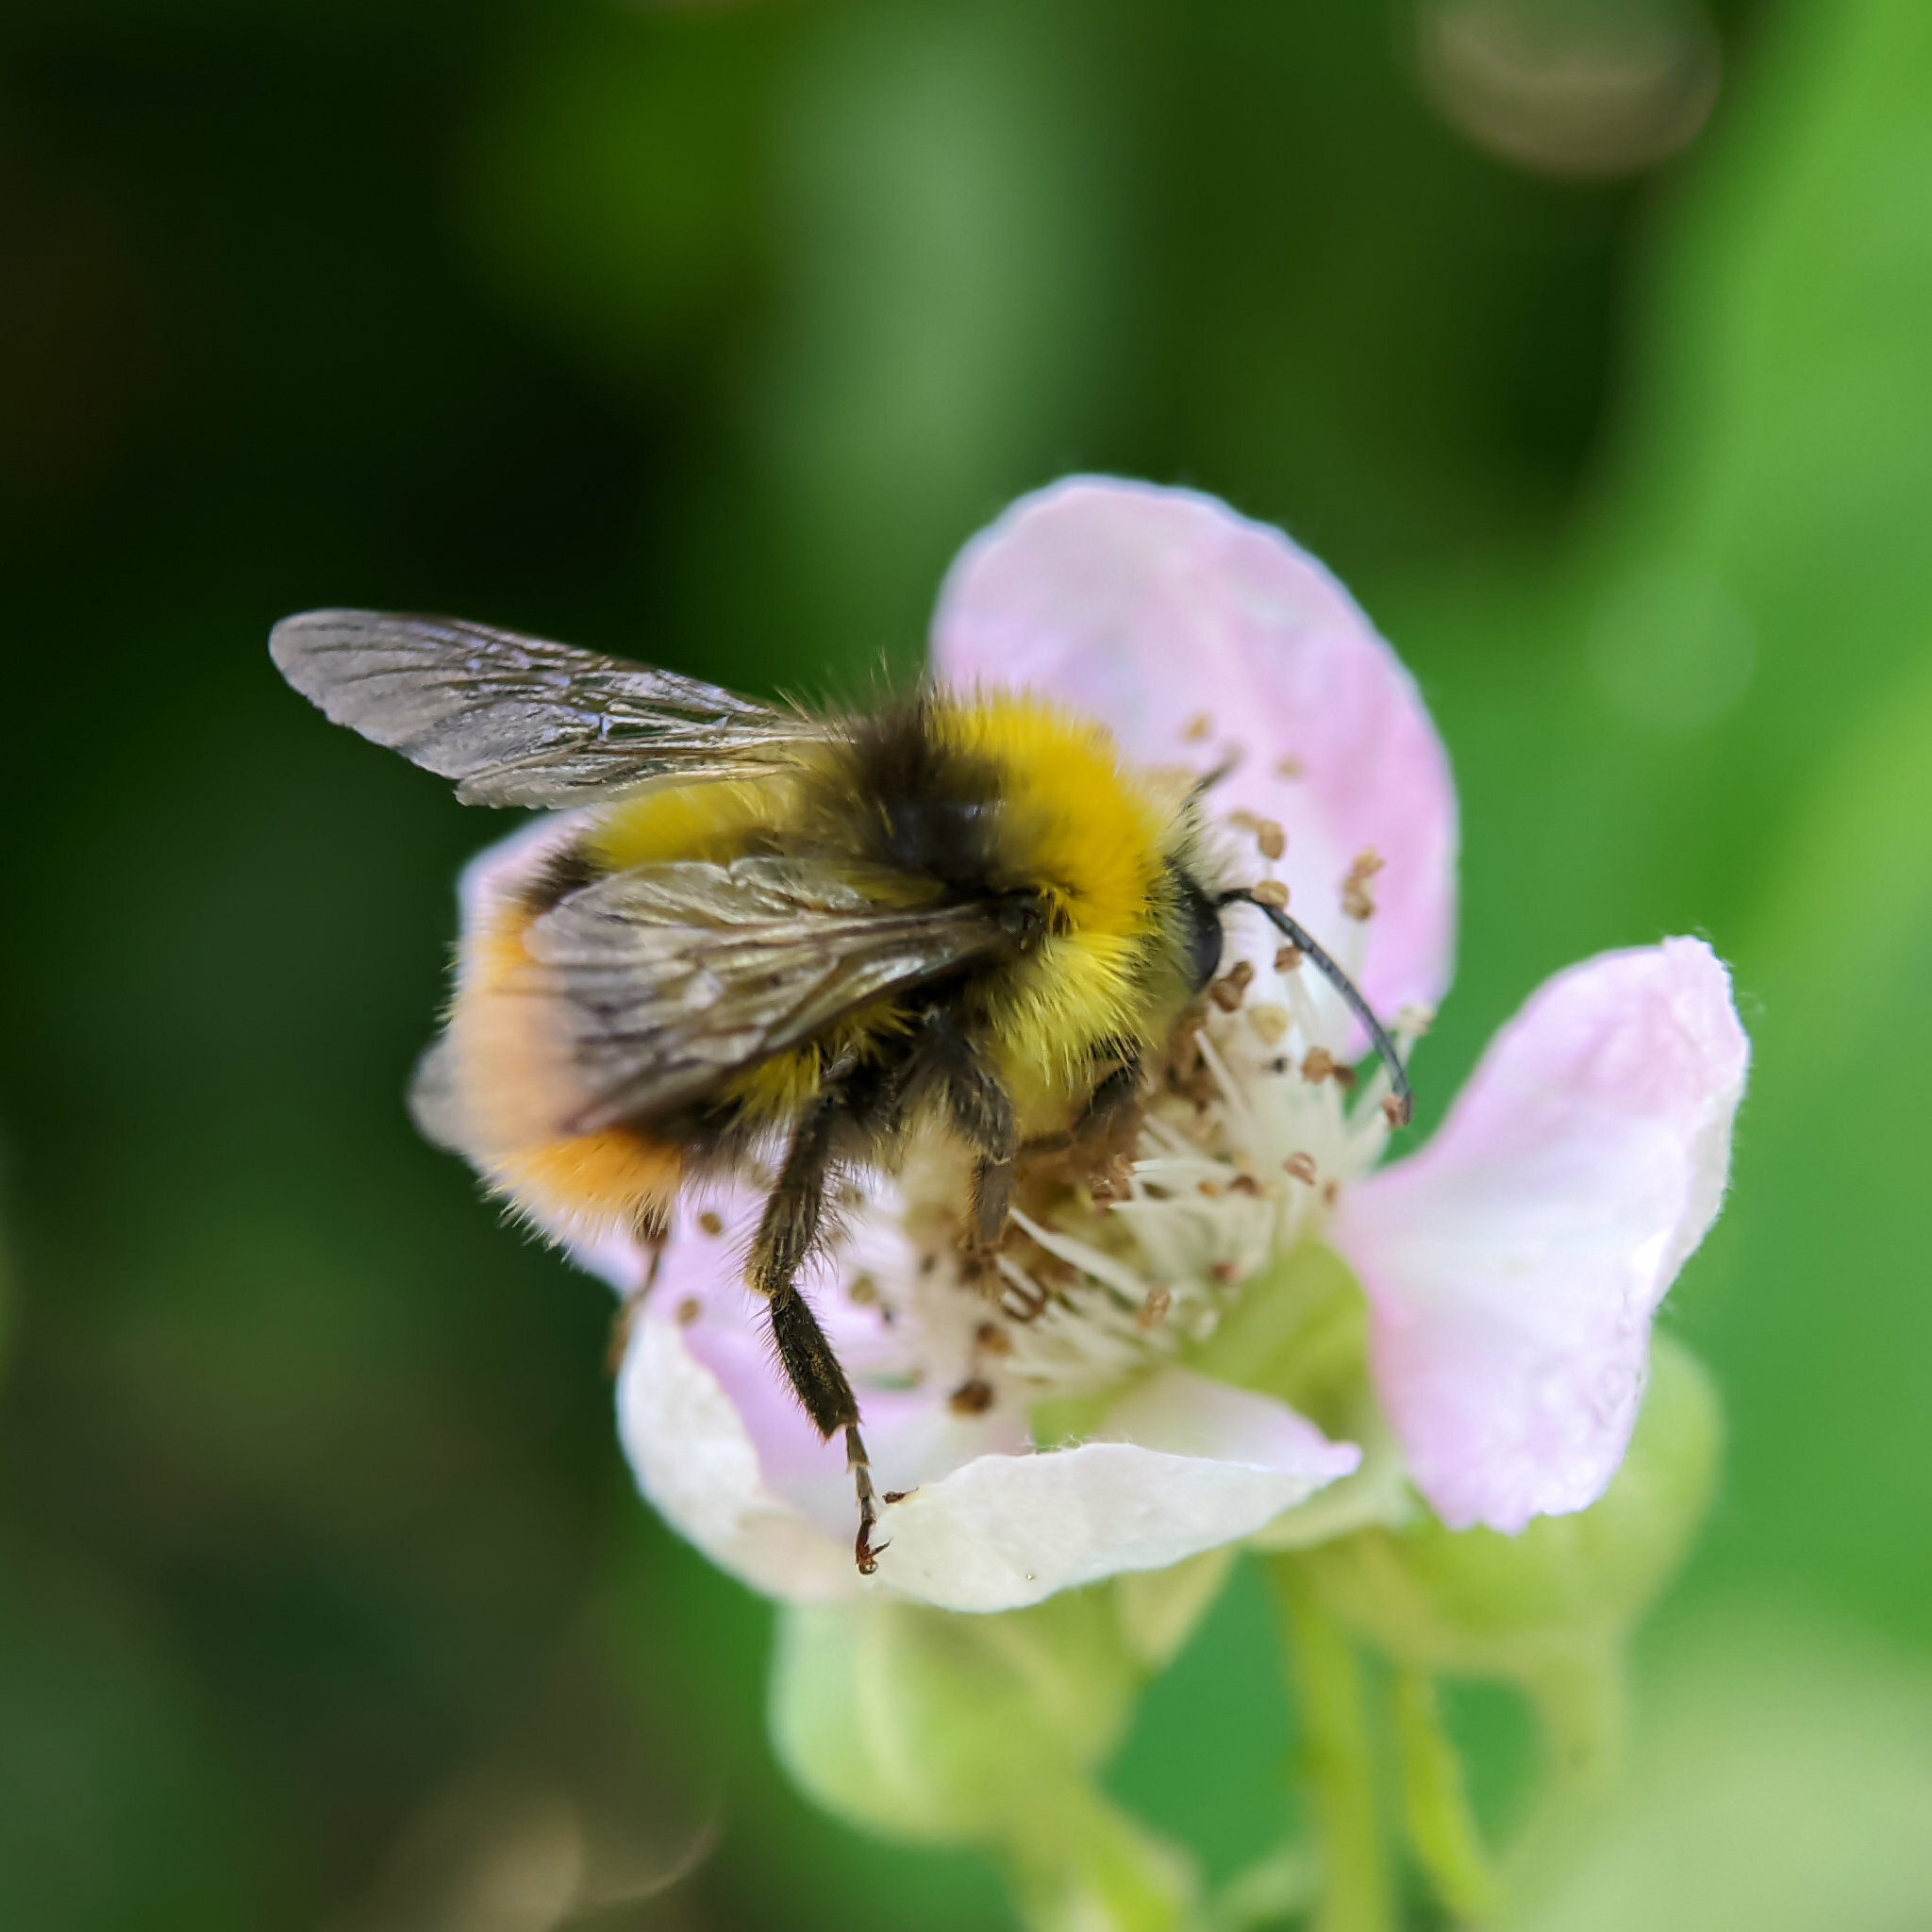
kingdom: Animalia
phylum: Arthropoda
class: Insecta
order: Hymenoptera
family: Apidae
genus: Bombus
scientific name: Bombus pratorum
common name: Early humble-bee
